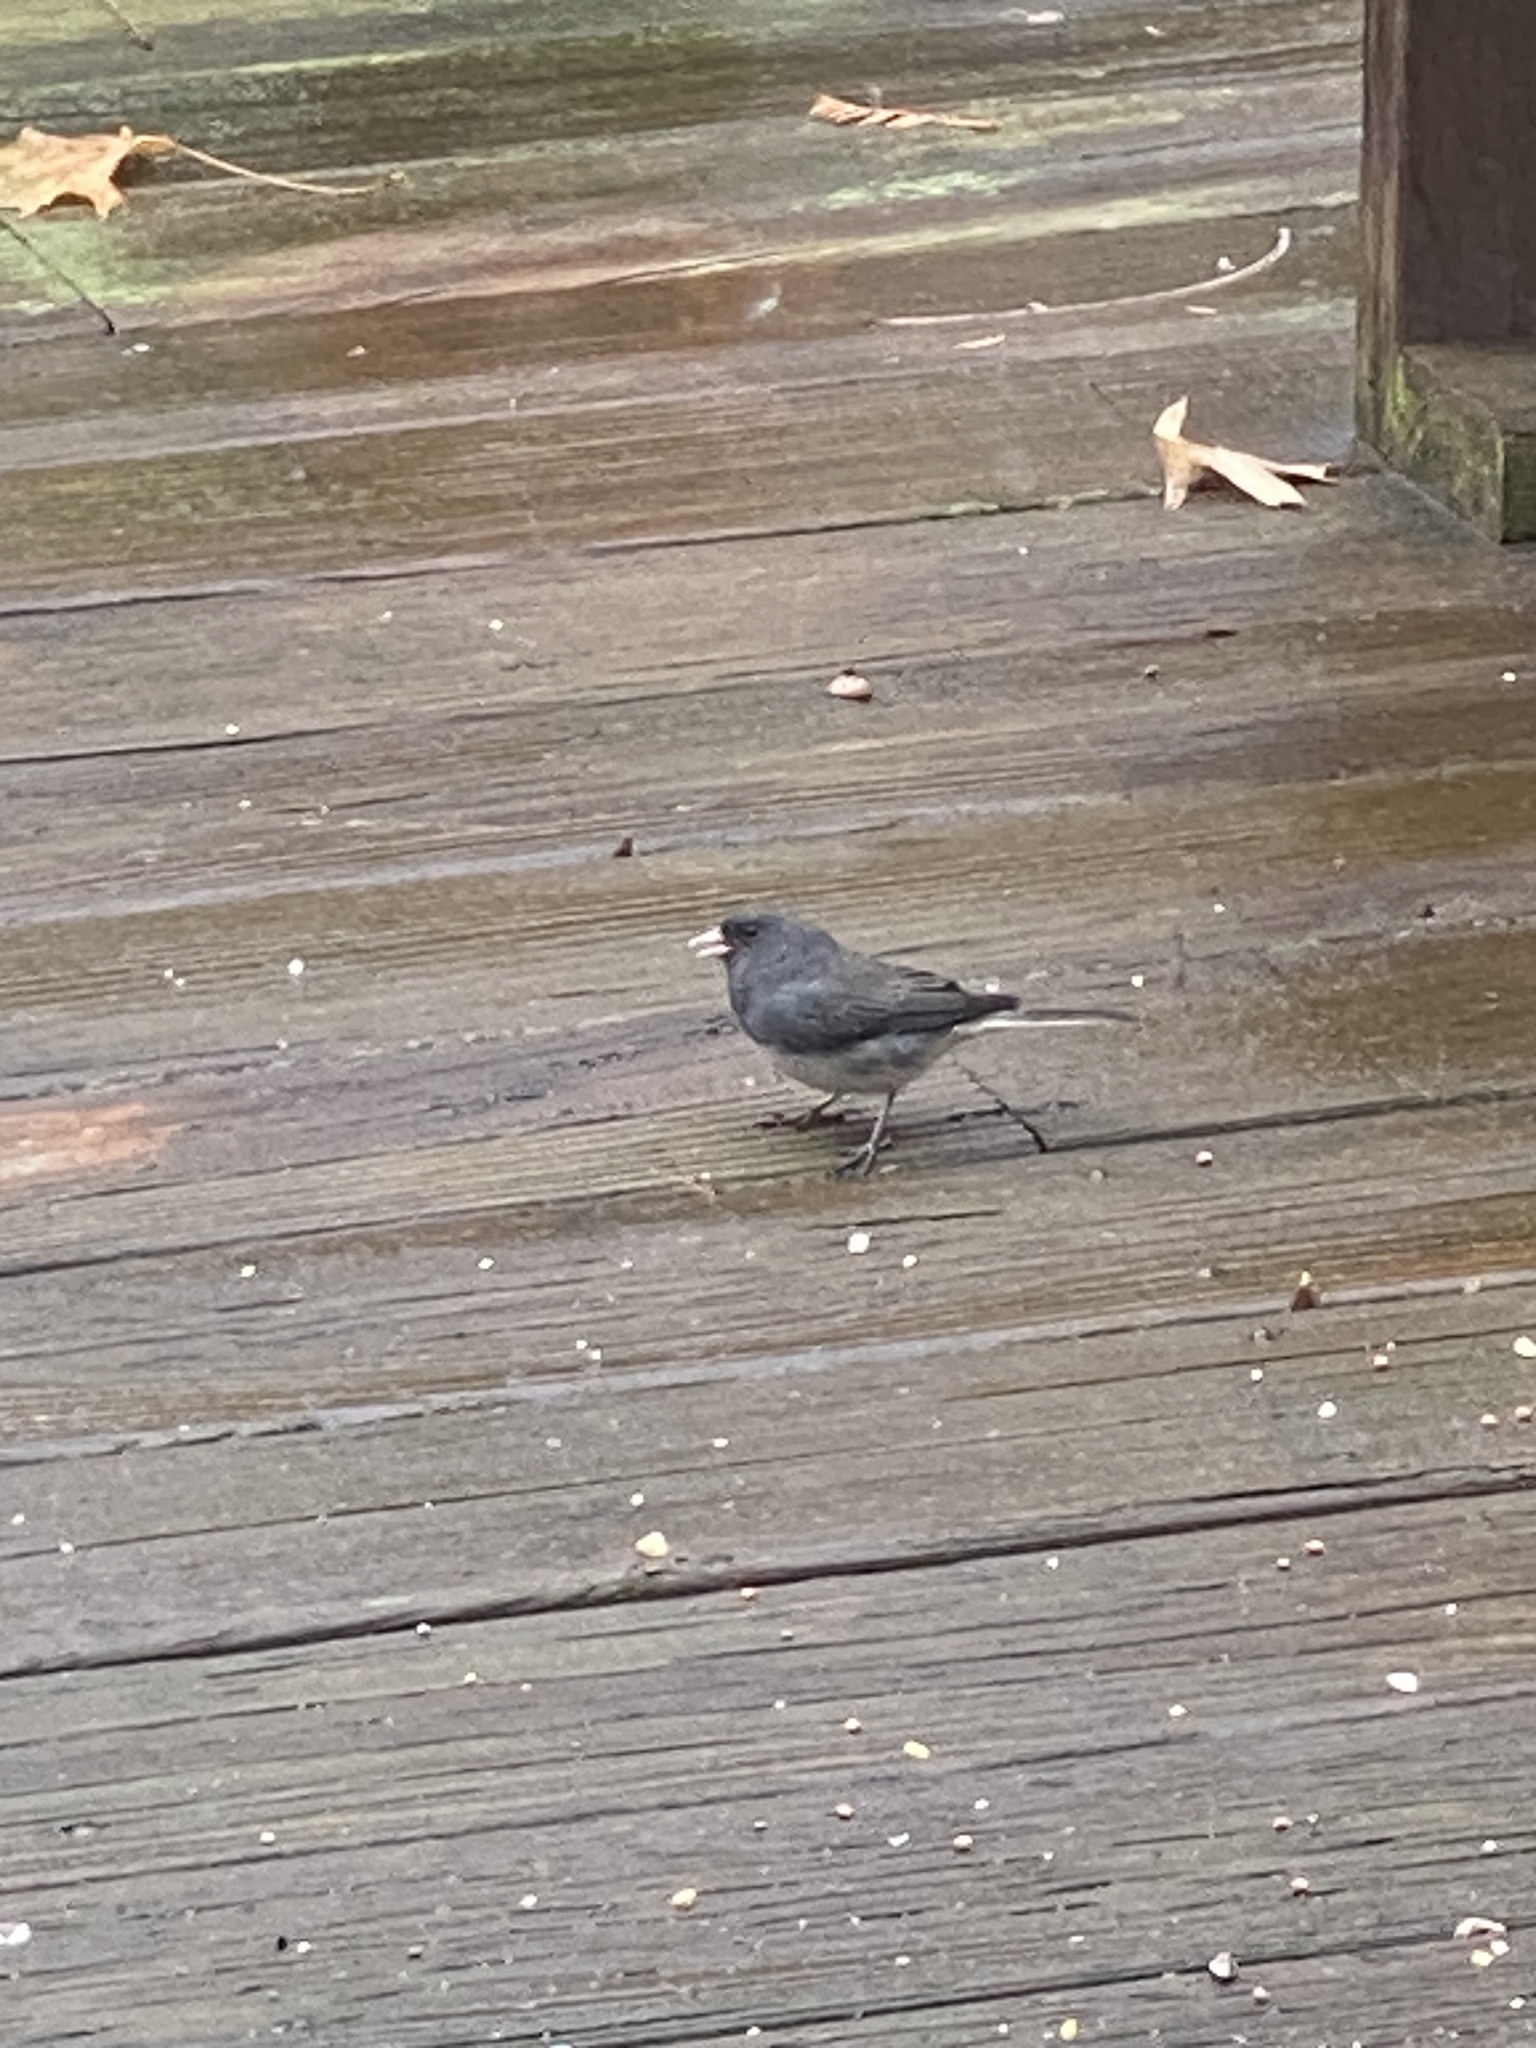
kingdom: Animalia
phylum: Chordata
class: Aves
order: Passeriformes
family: Passerellidae
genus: Junco
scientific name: Junco hyemalis
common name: Dark-eyed junco
